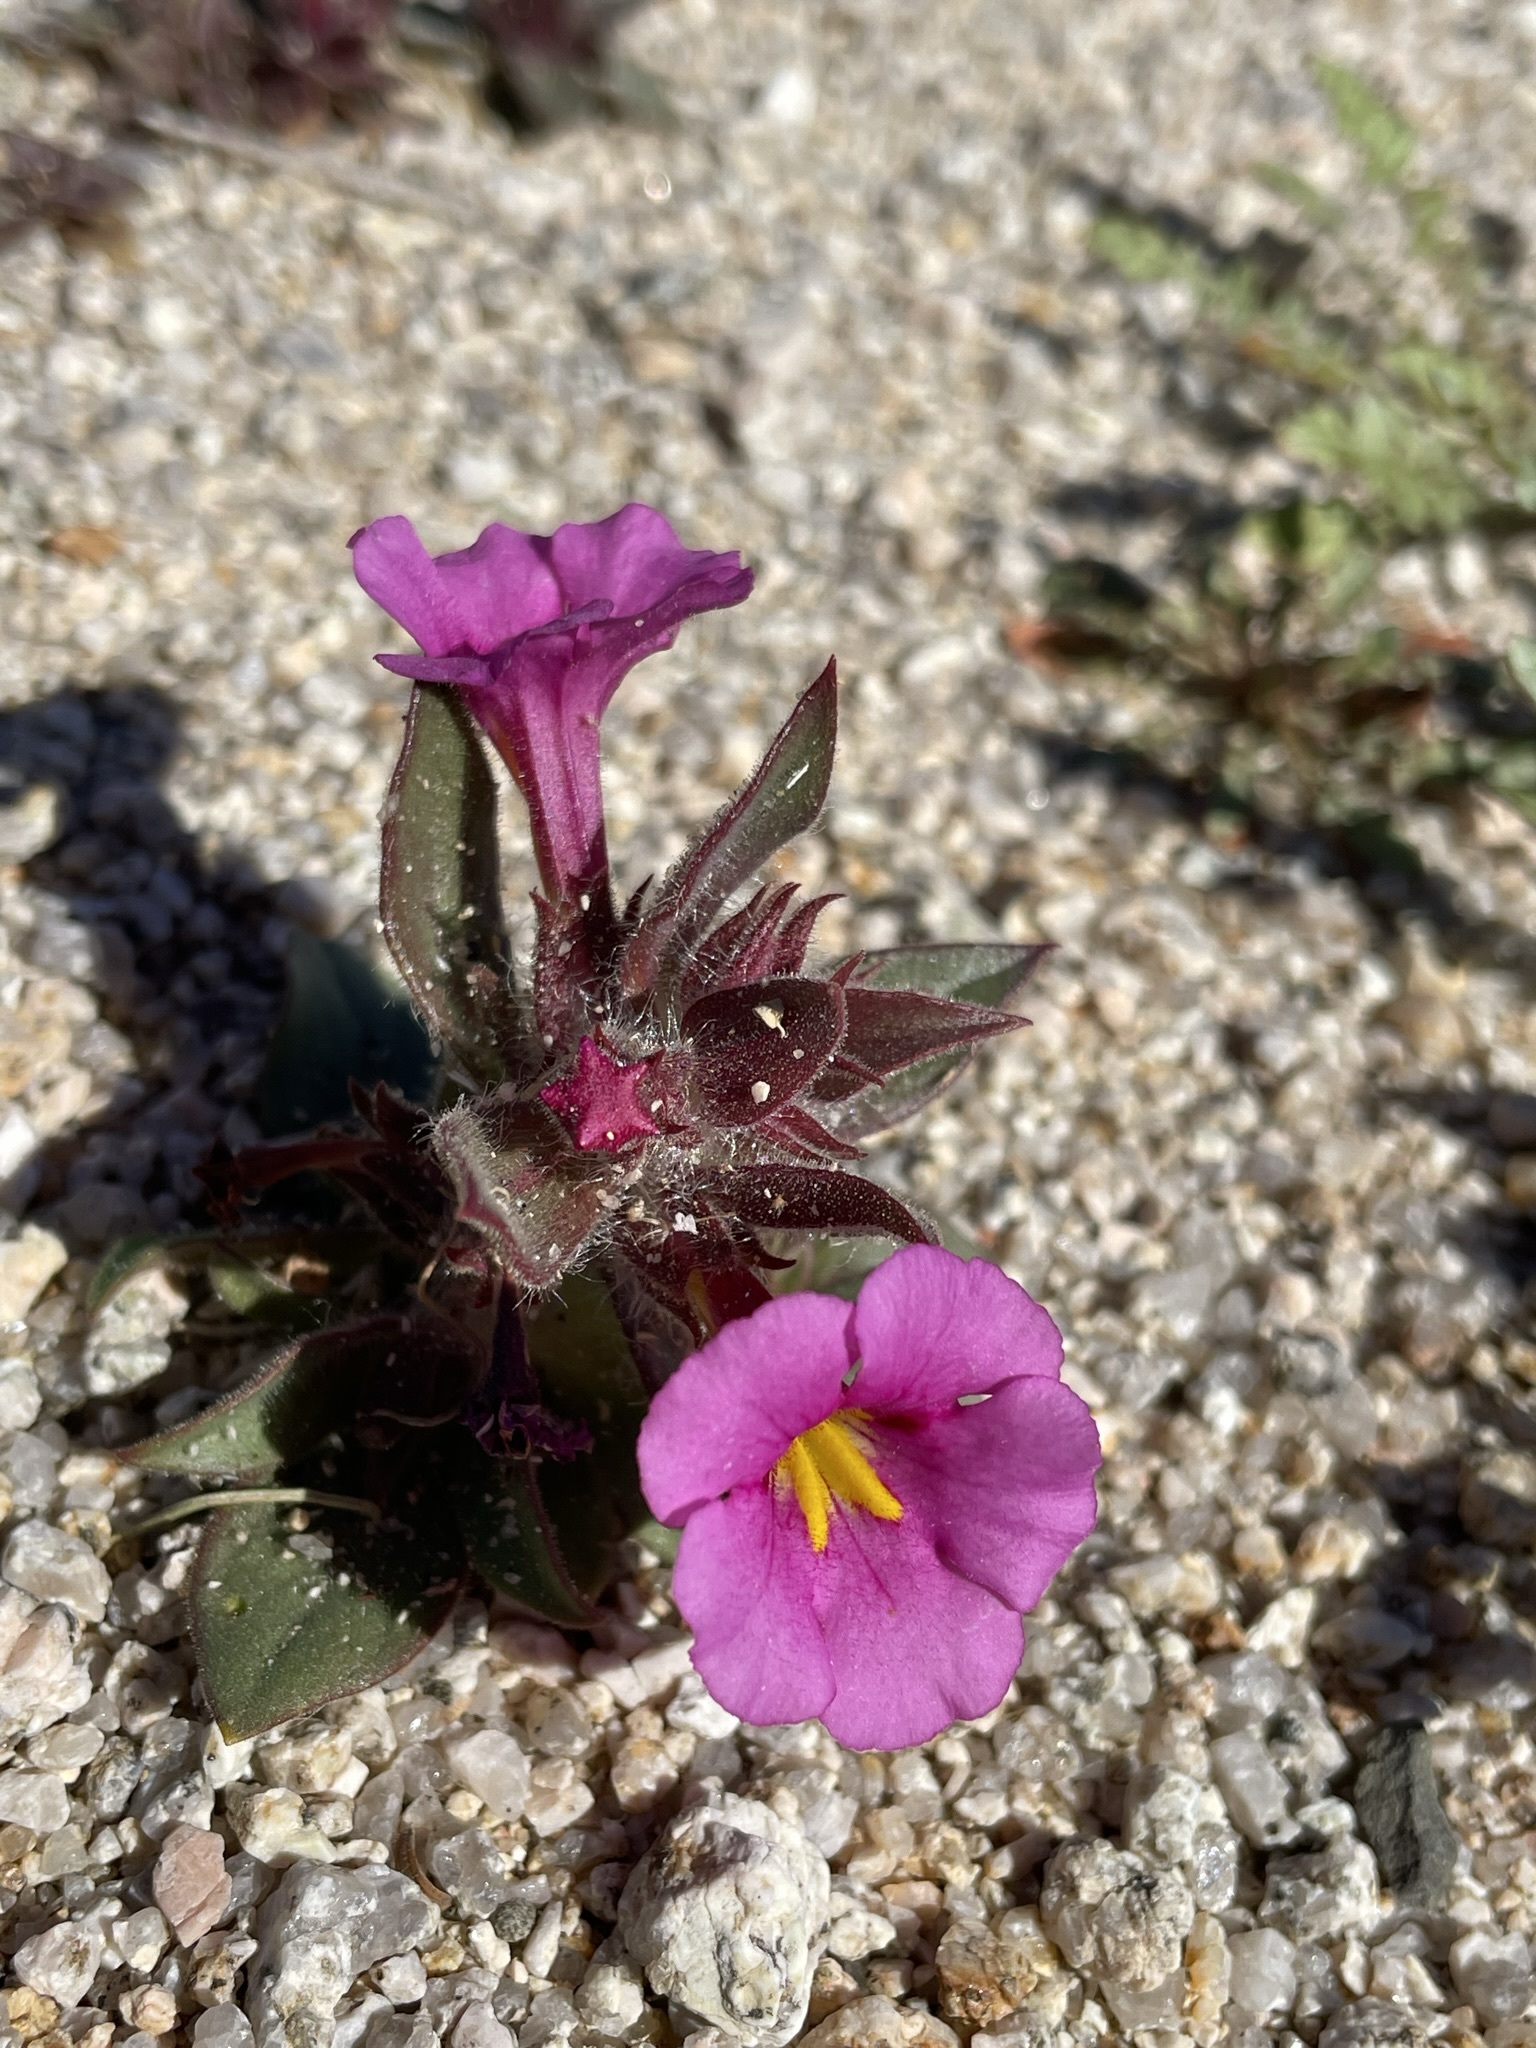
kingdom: Plantae
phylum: Tracheophyta
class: Magnoliopsida
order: Lamiales
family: Phrymaceae
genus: Diplacus
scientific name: Diplacus bigelovii
